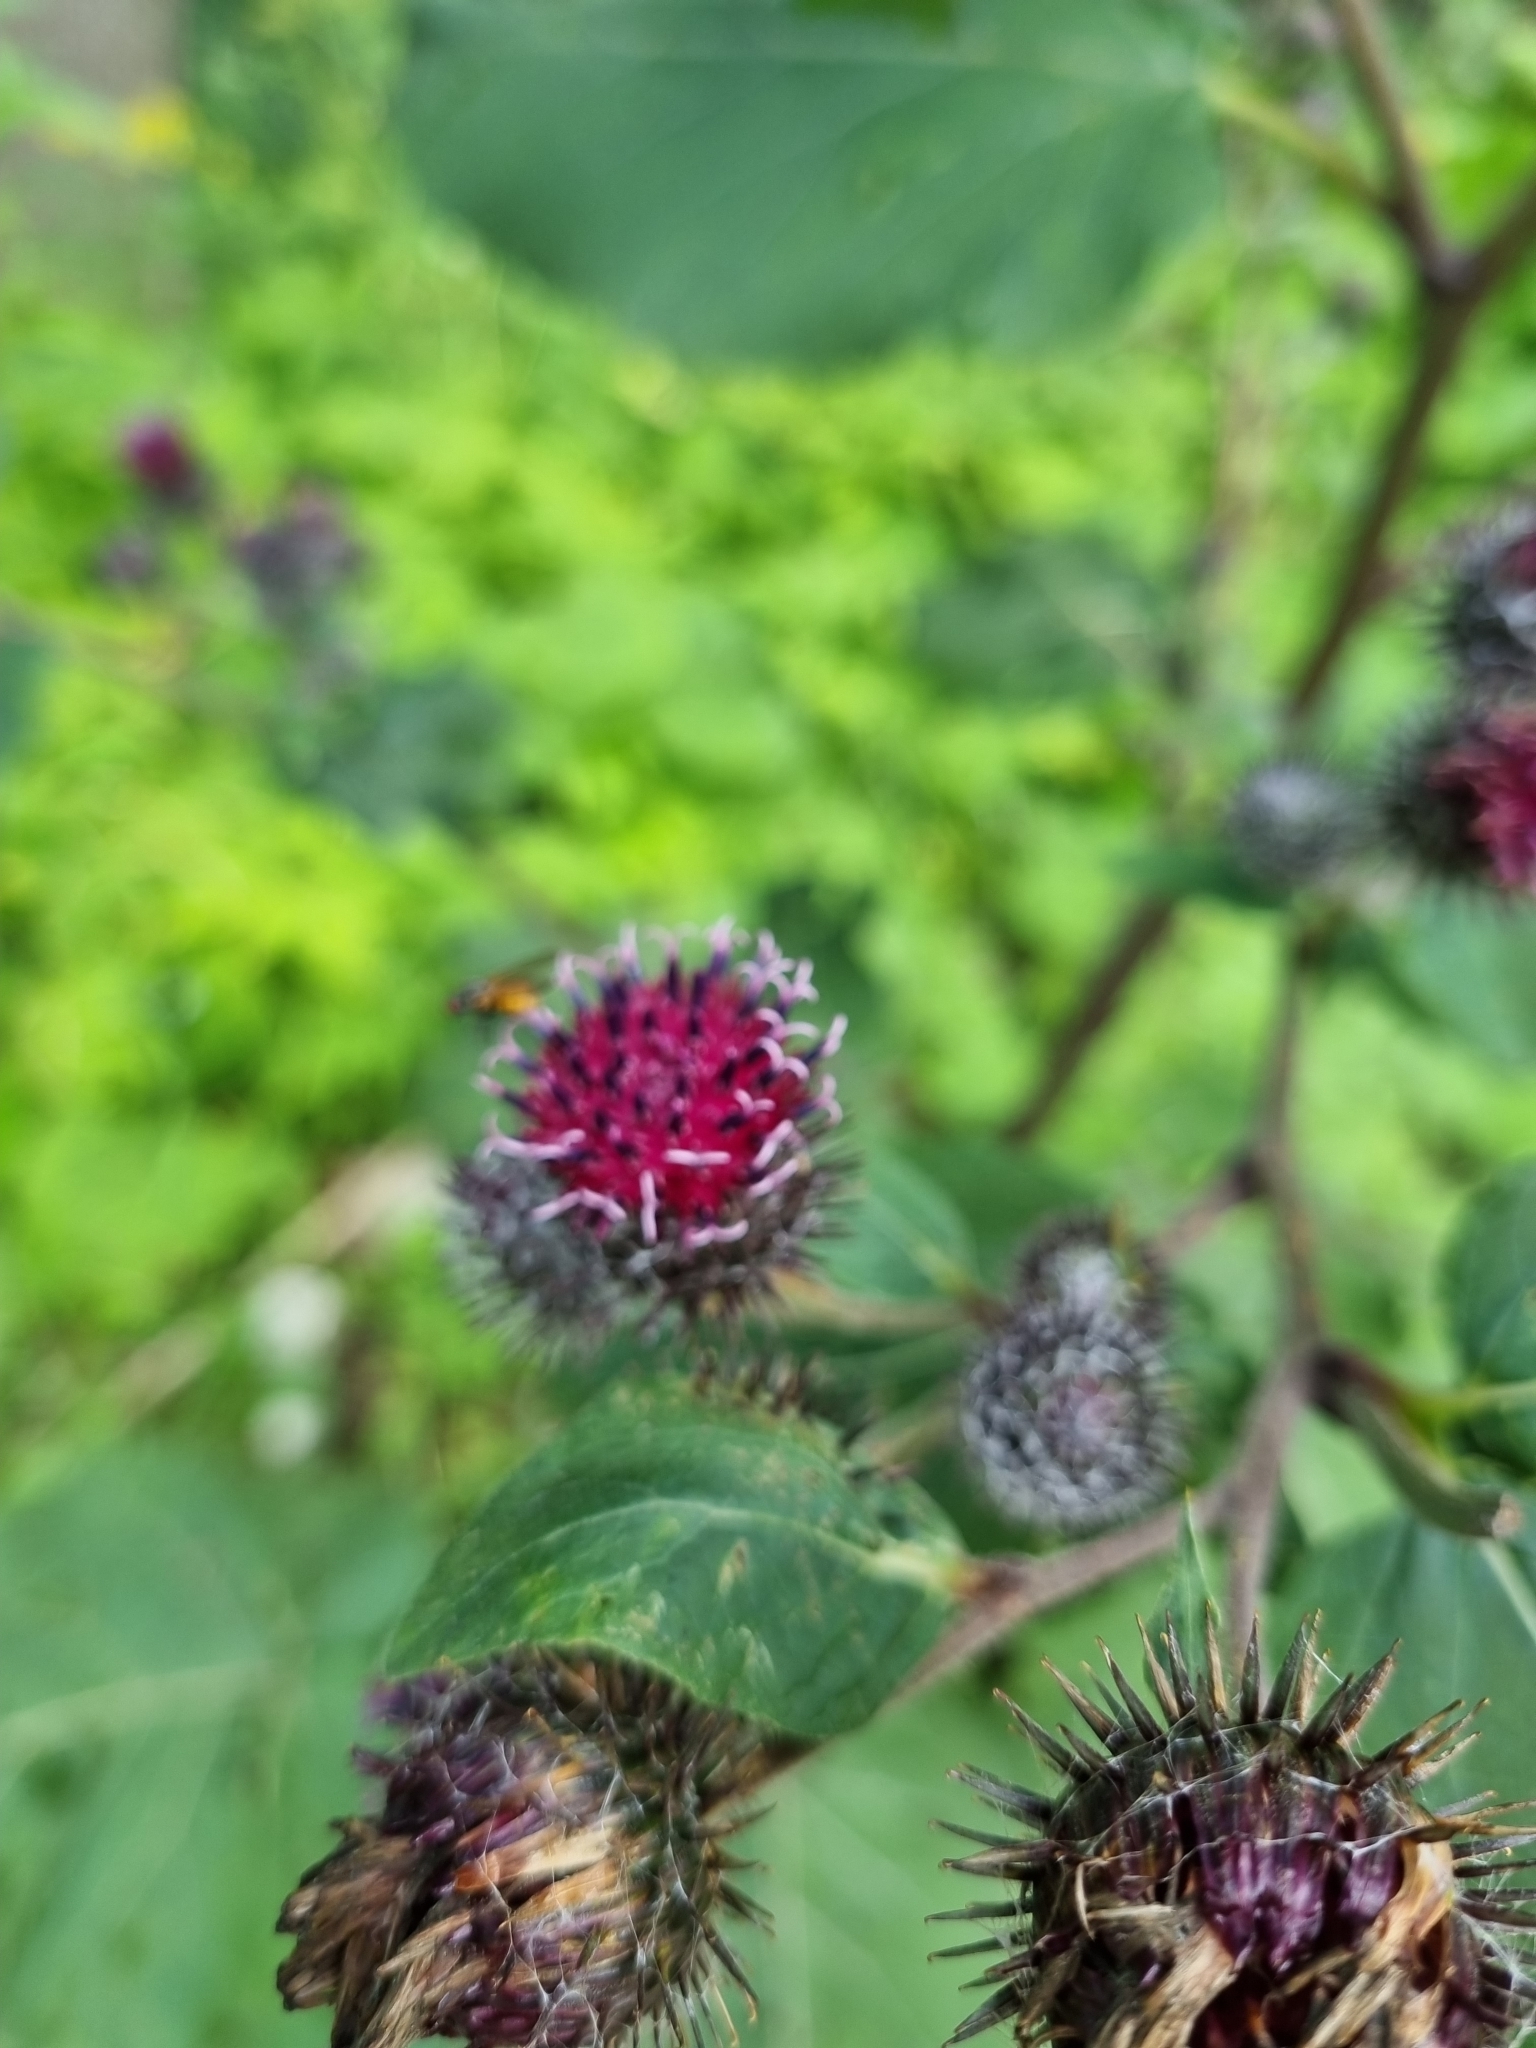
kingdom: Plantae
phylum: Tracheophyta
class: Magnoliopsida
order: Asterales
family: Asteraceae
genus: Arctium
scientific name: Arctium tomentosum
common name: Woolly burdock
